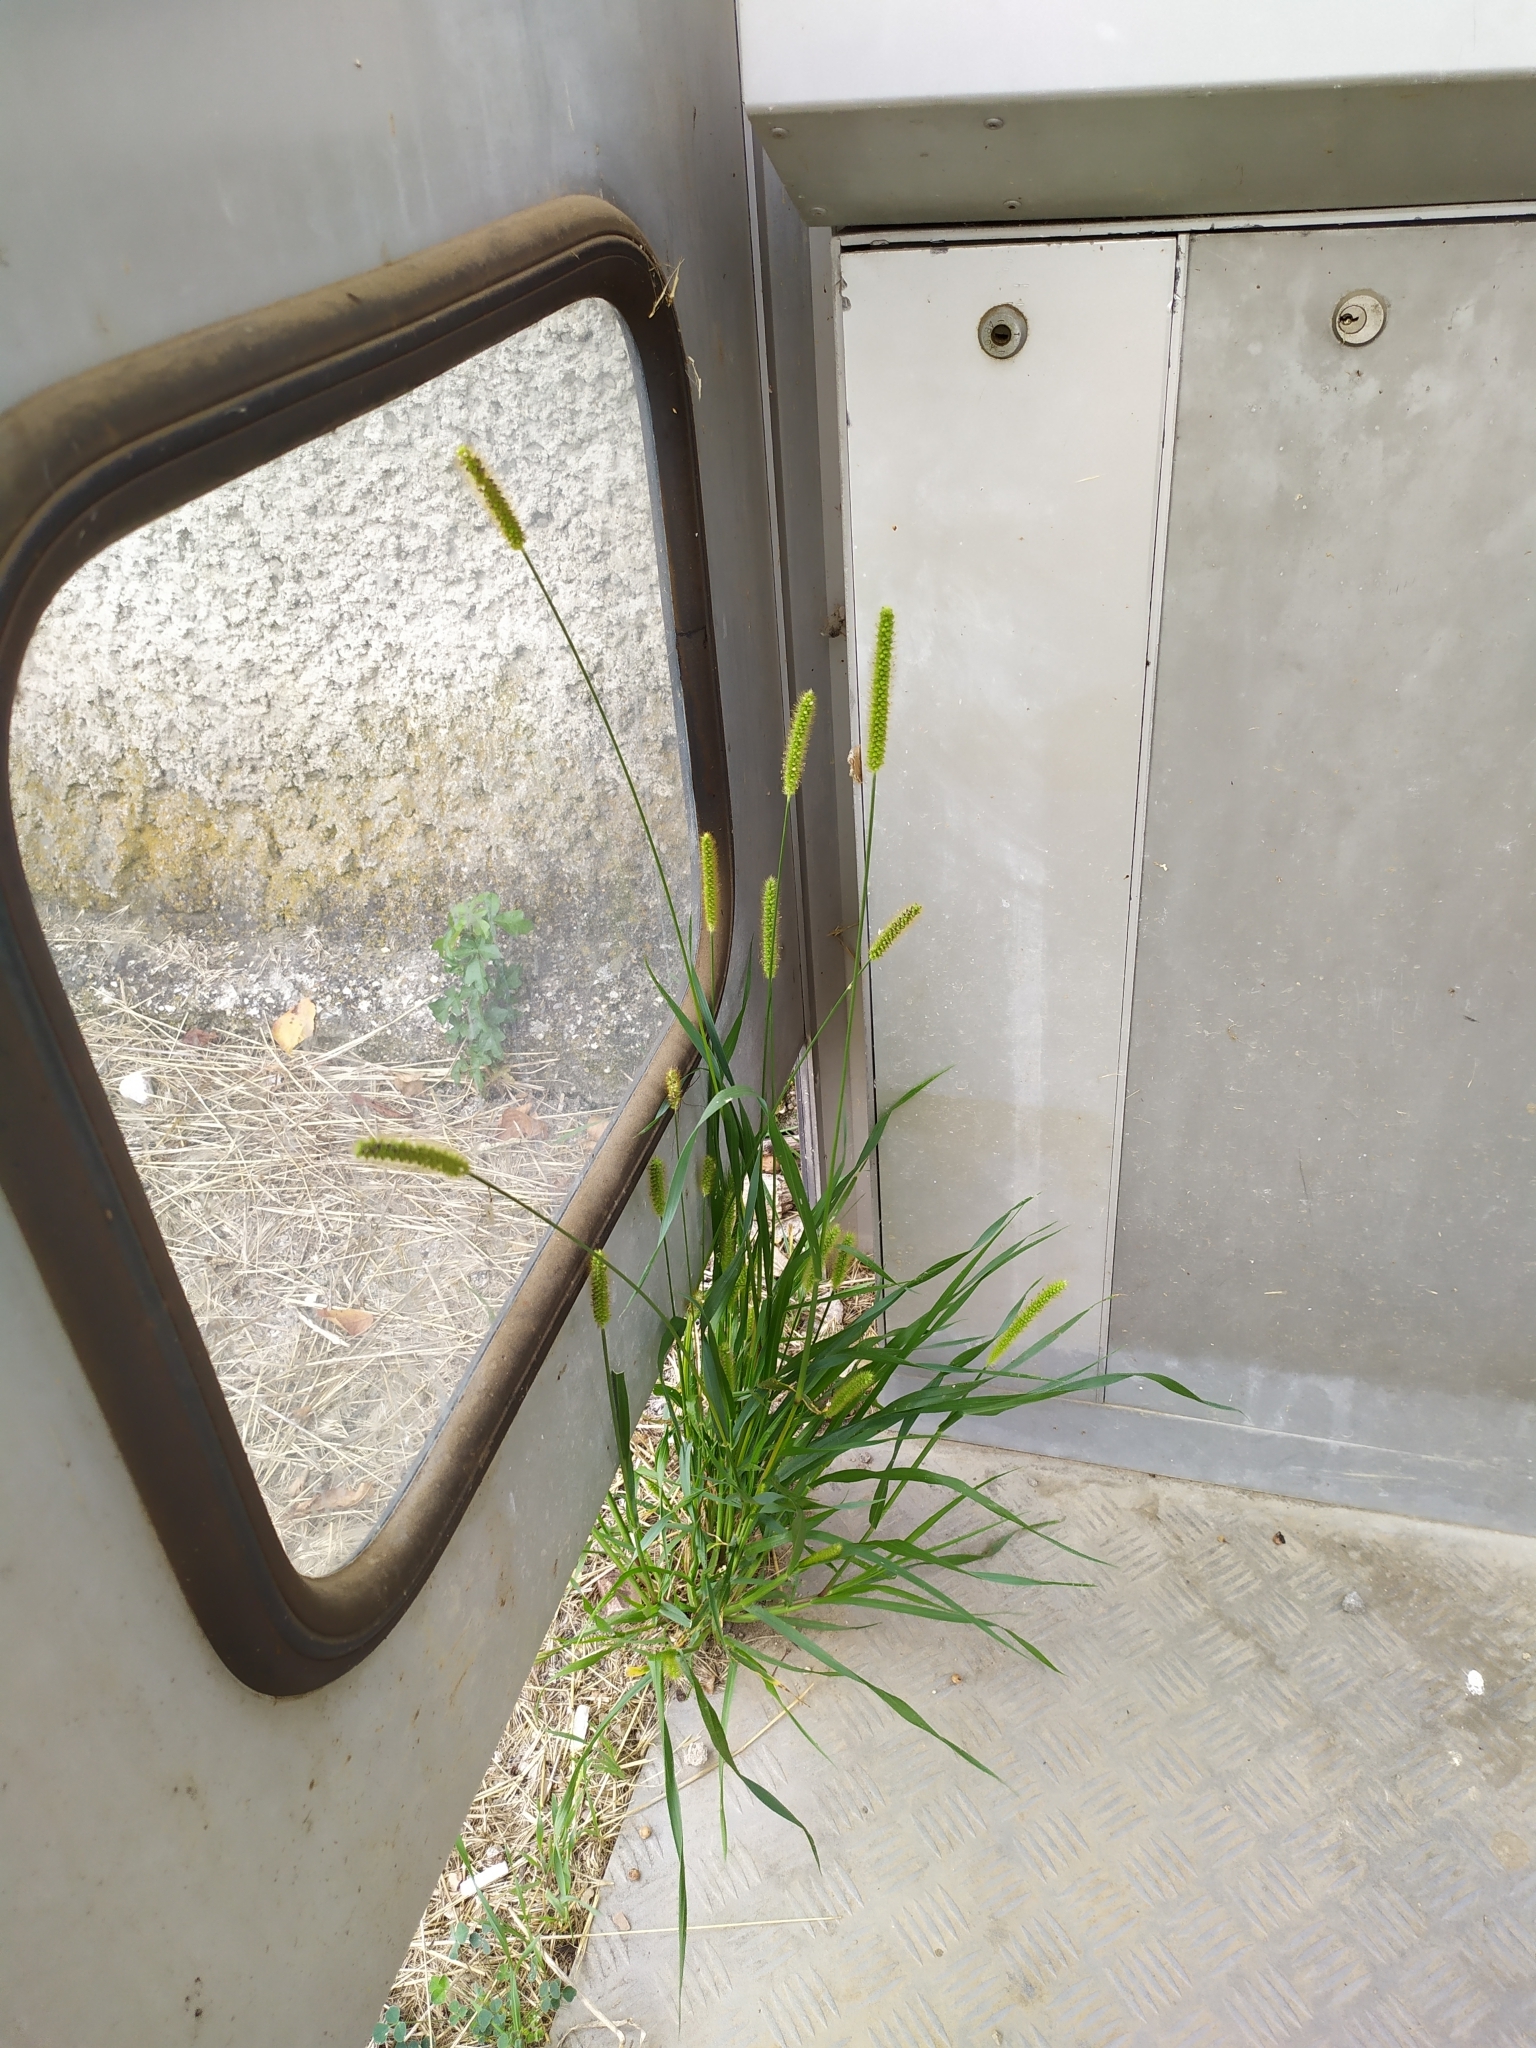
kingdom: Plantae
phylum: Tracheophyta
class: Liliopsida
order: Poales
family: Poaceae
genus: Setaria
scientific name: Setaria pumila
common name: Yellow bristle-grass
